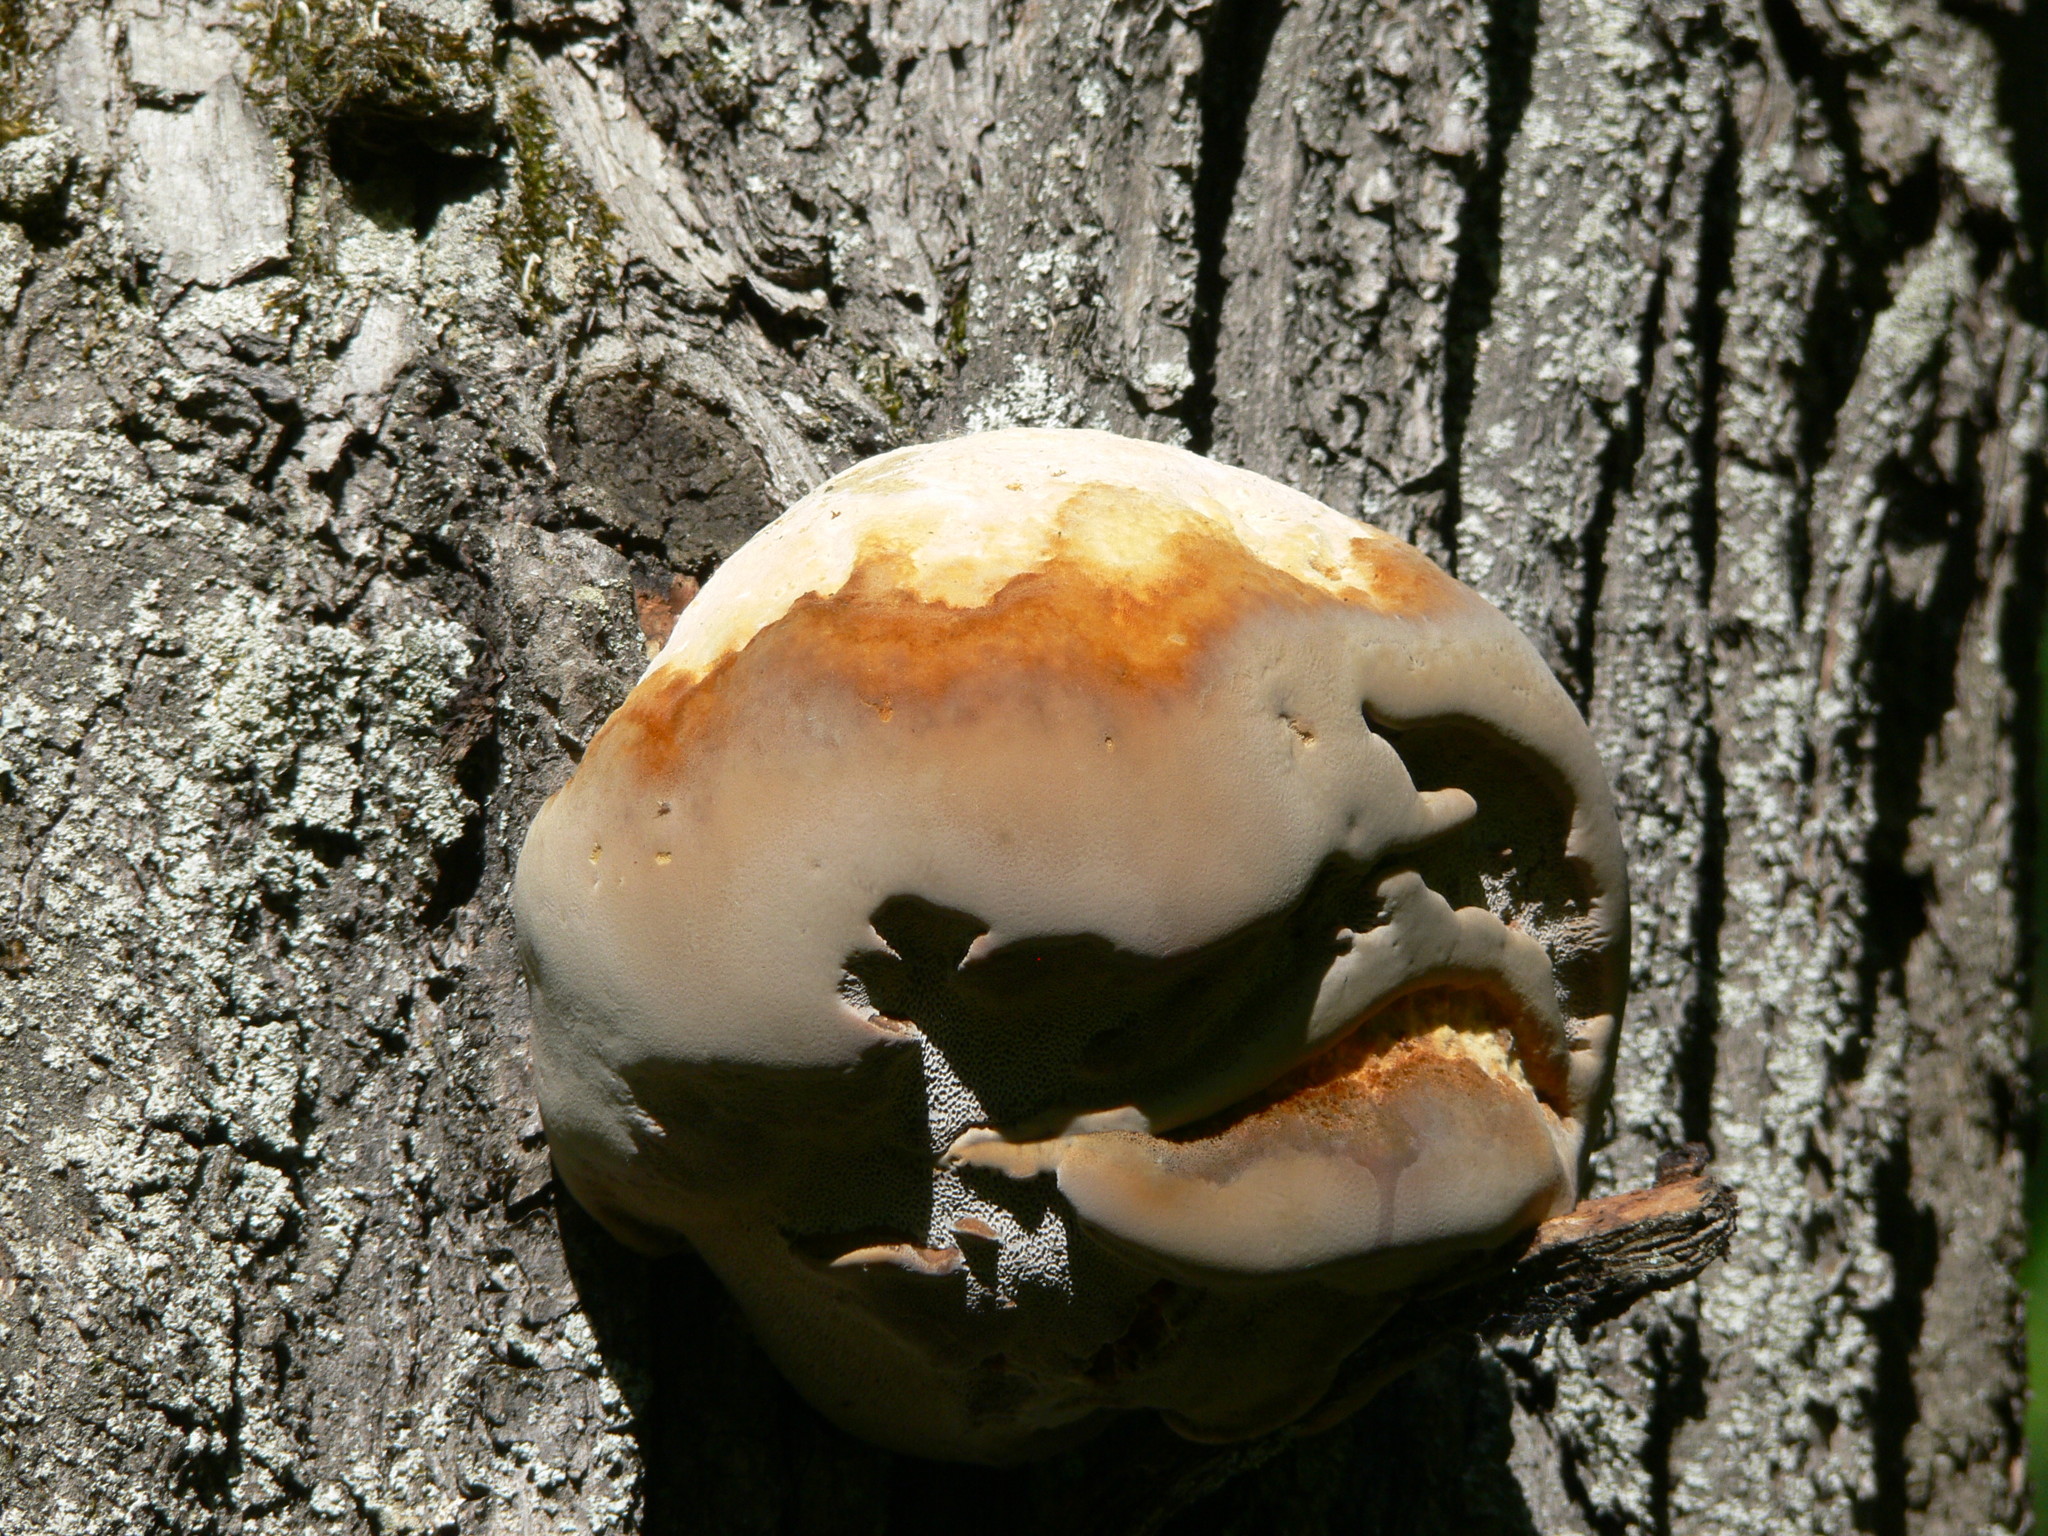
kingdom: Fungi
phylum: Basidiomycota
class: Agaricomycetes
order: Hymenochaetales
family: Hymenochaetaceae
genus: Fomitiporia
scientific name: Fomitiporia robusta
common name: Robust bracket
